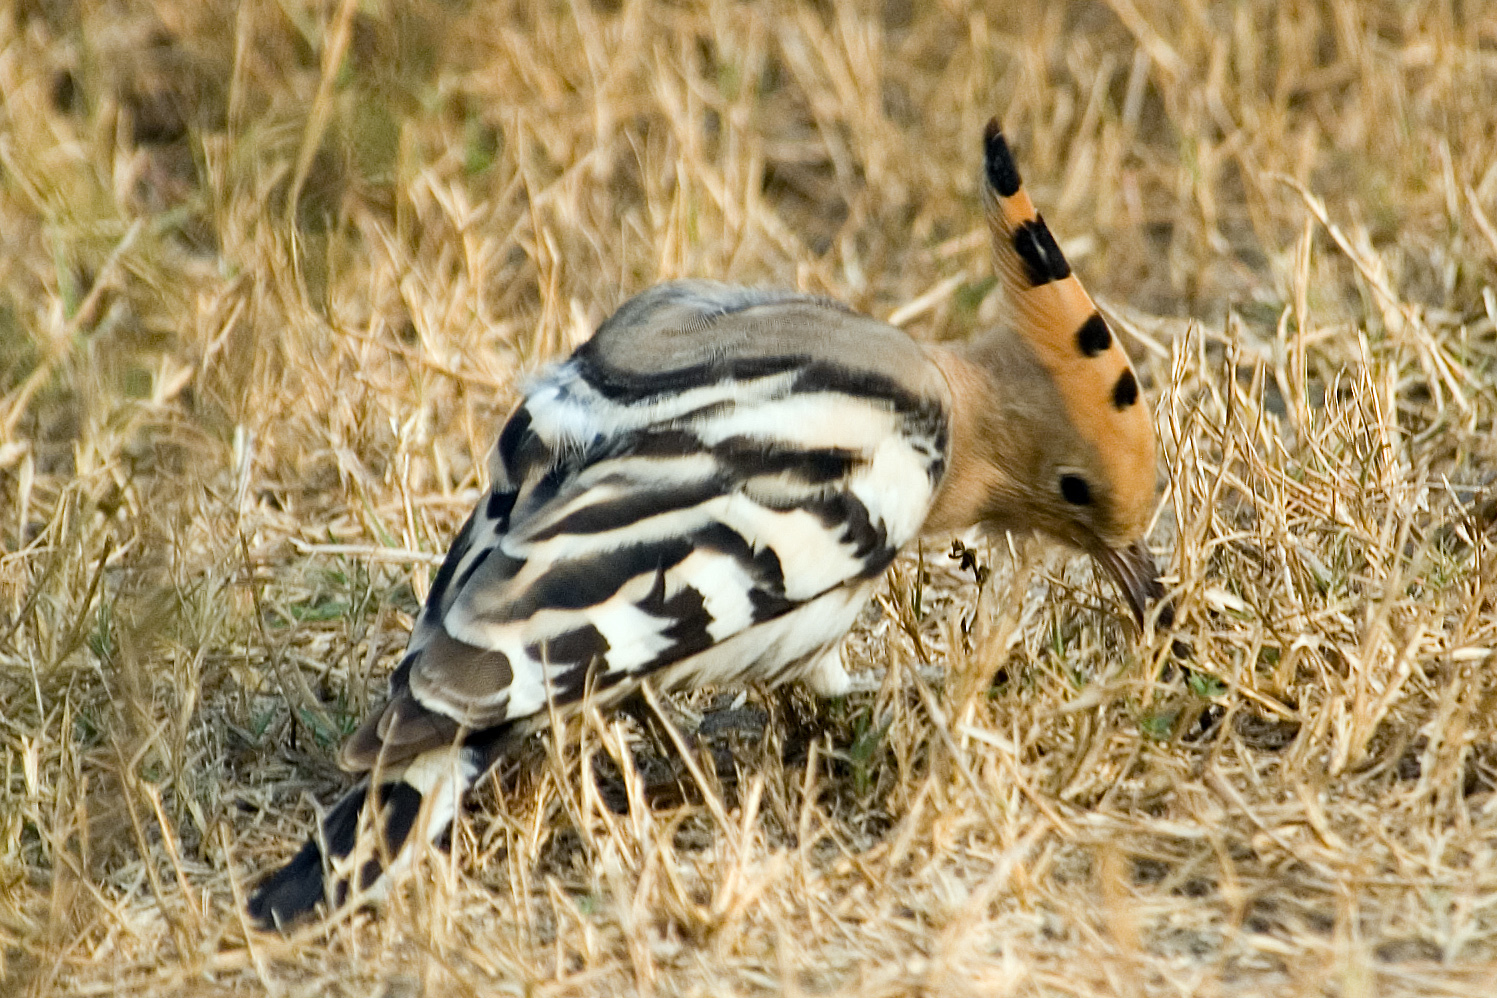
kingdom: Animalia
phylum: Chordata
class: Aves
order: Bucerotiformes
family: Upupidae
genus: Upupa
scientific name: Upupa epops
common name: Eurasian hoopoe
